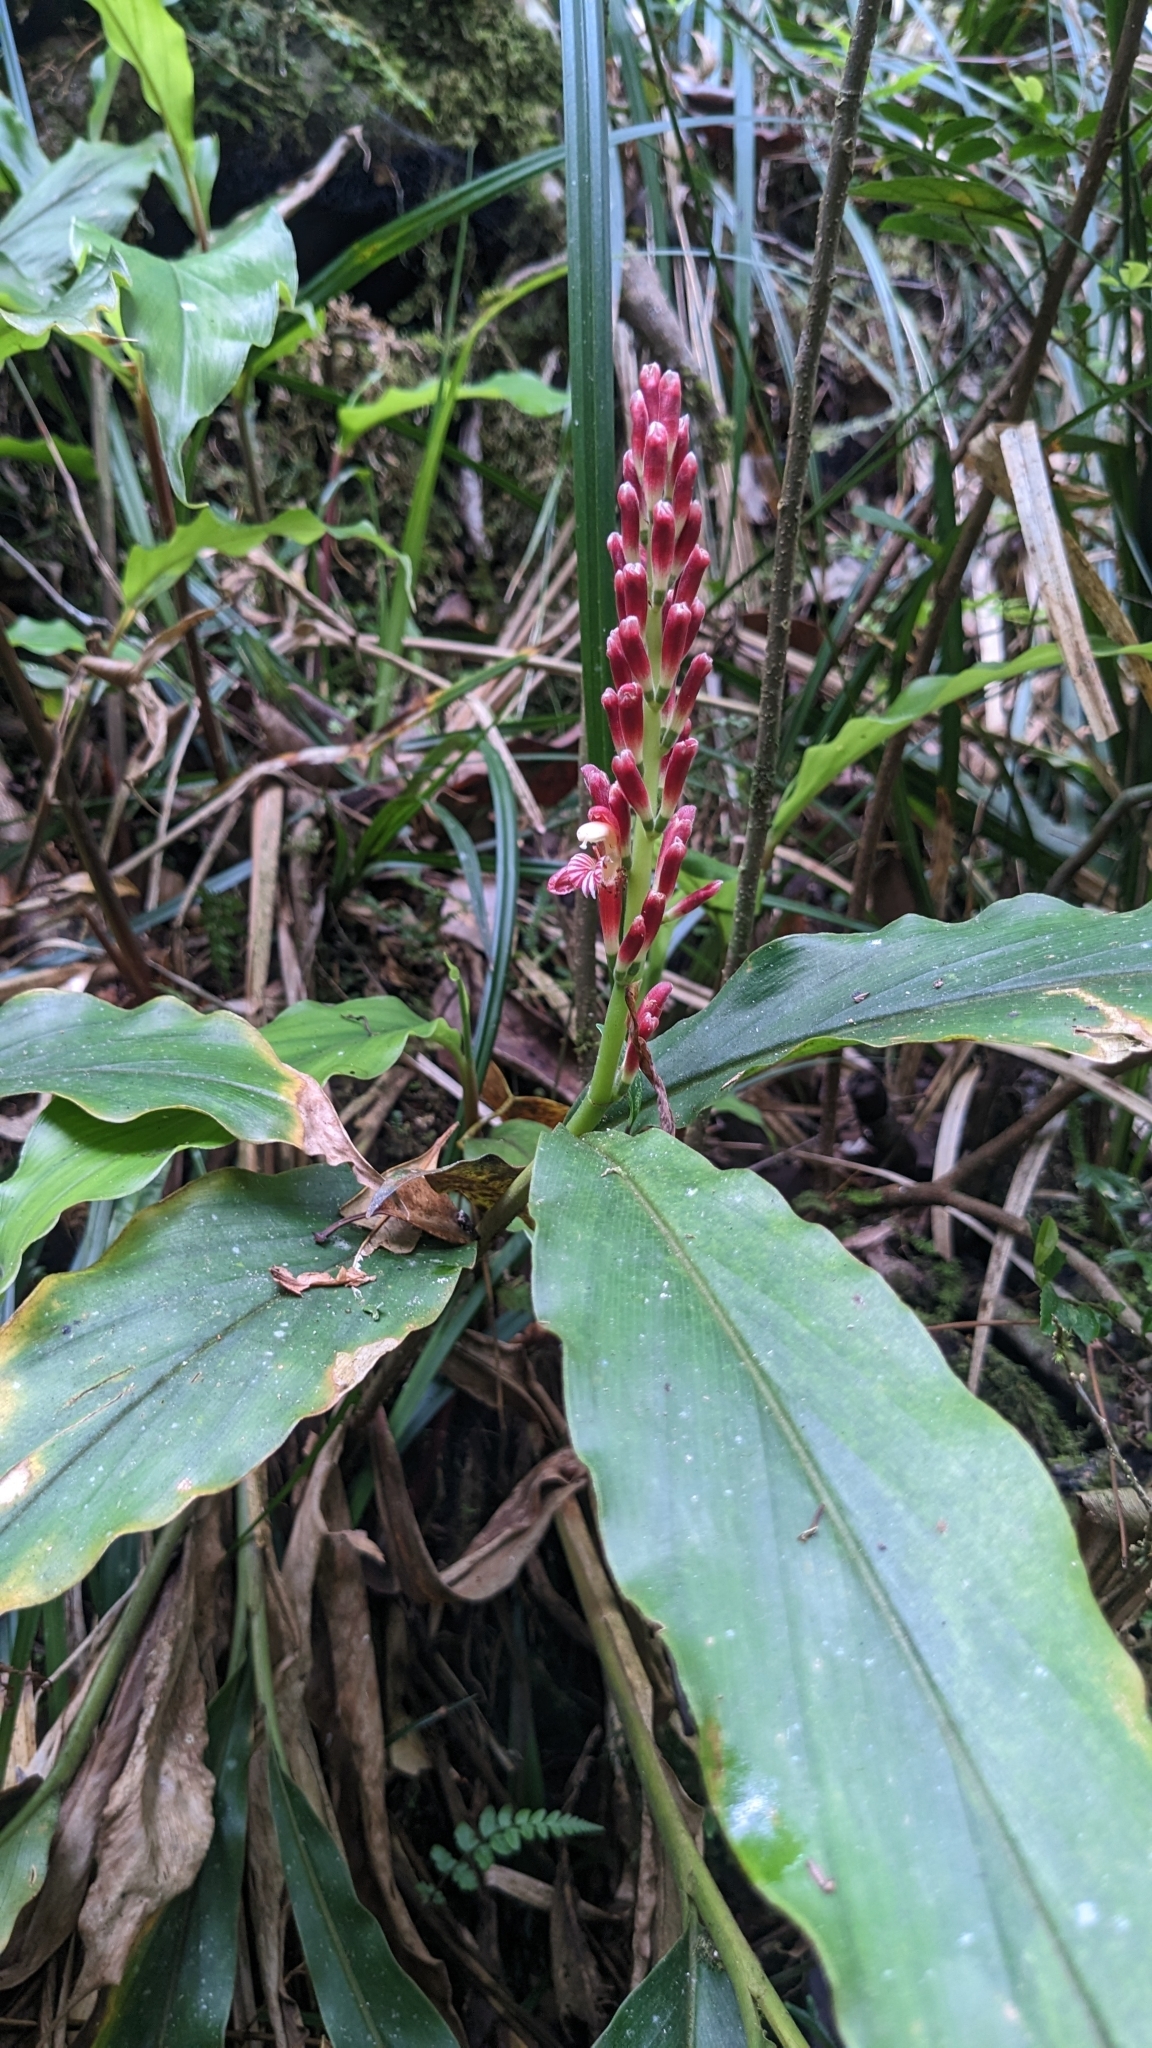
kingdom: Plantae
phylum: Tracheophyta
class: Liliopsida
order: Zingiberales
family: Zingiberaceae
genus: Alpinia
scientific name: Alpinia japonica
